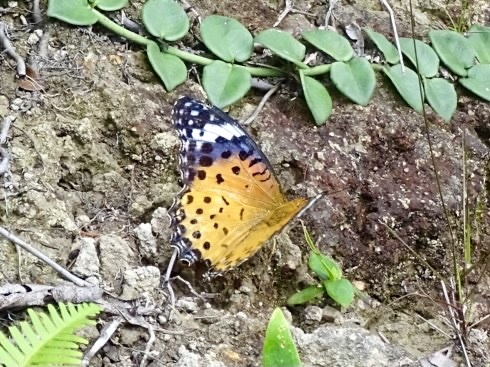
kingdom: Animalia
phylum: Arthropoda
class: Insecta
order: Lepidoptera
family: Nymphalidae
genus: Argynnis
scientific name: Argynnis hyperbius
